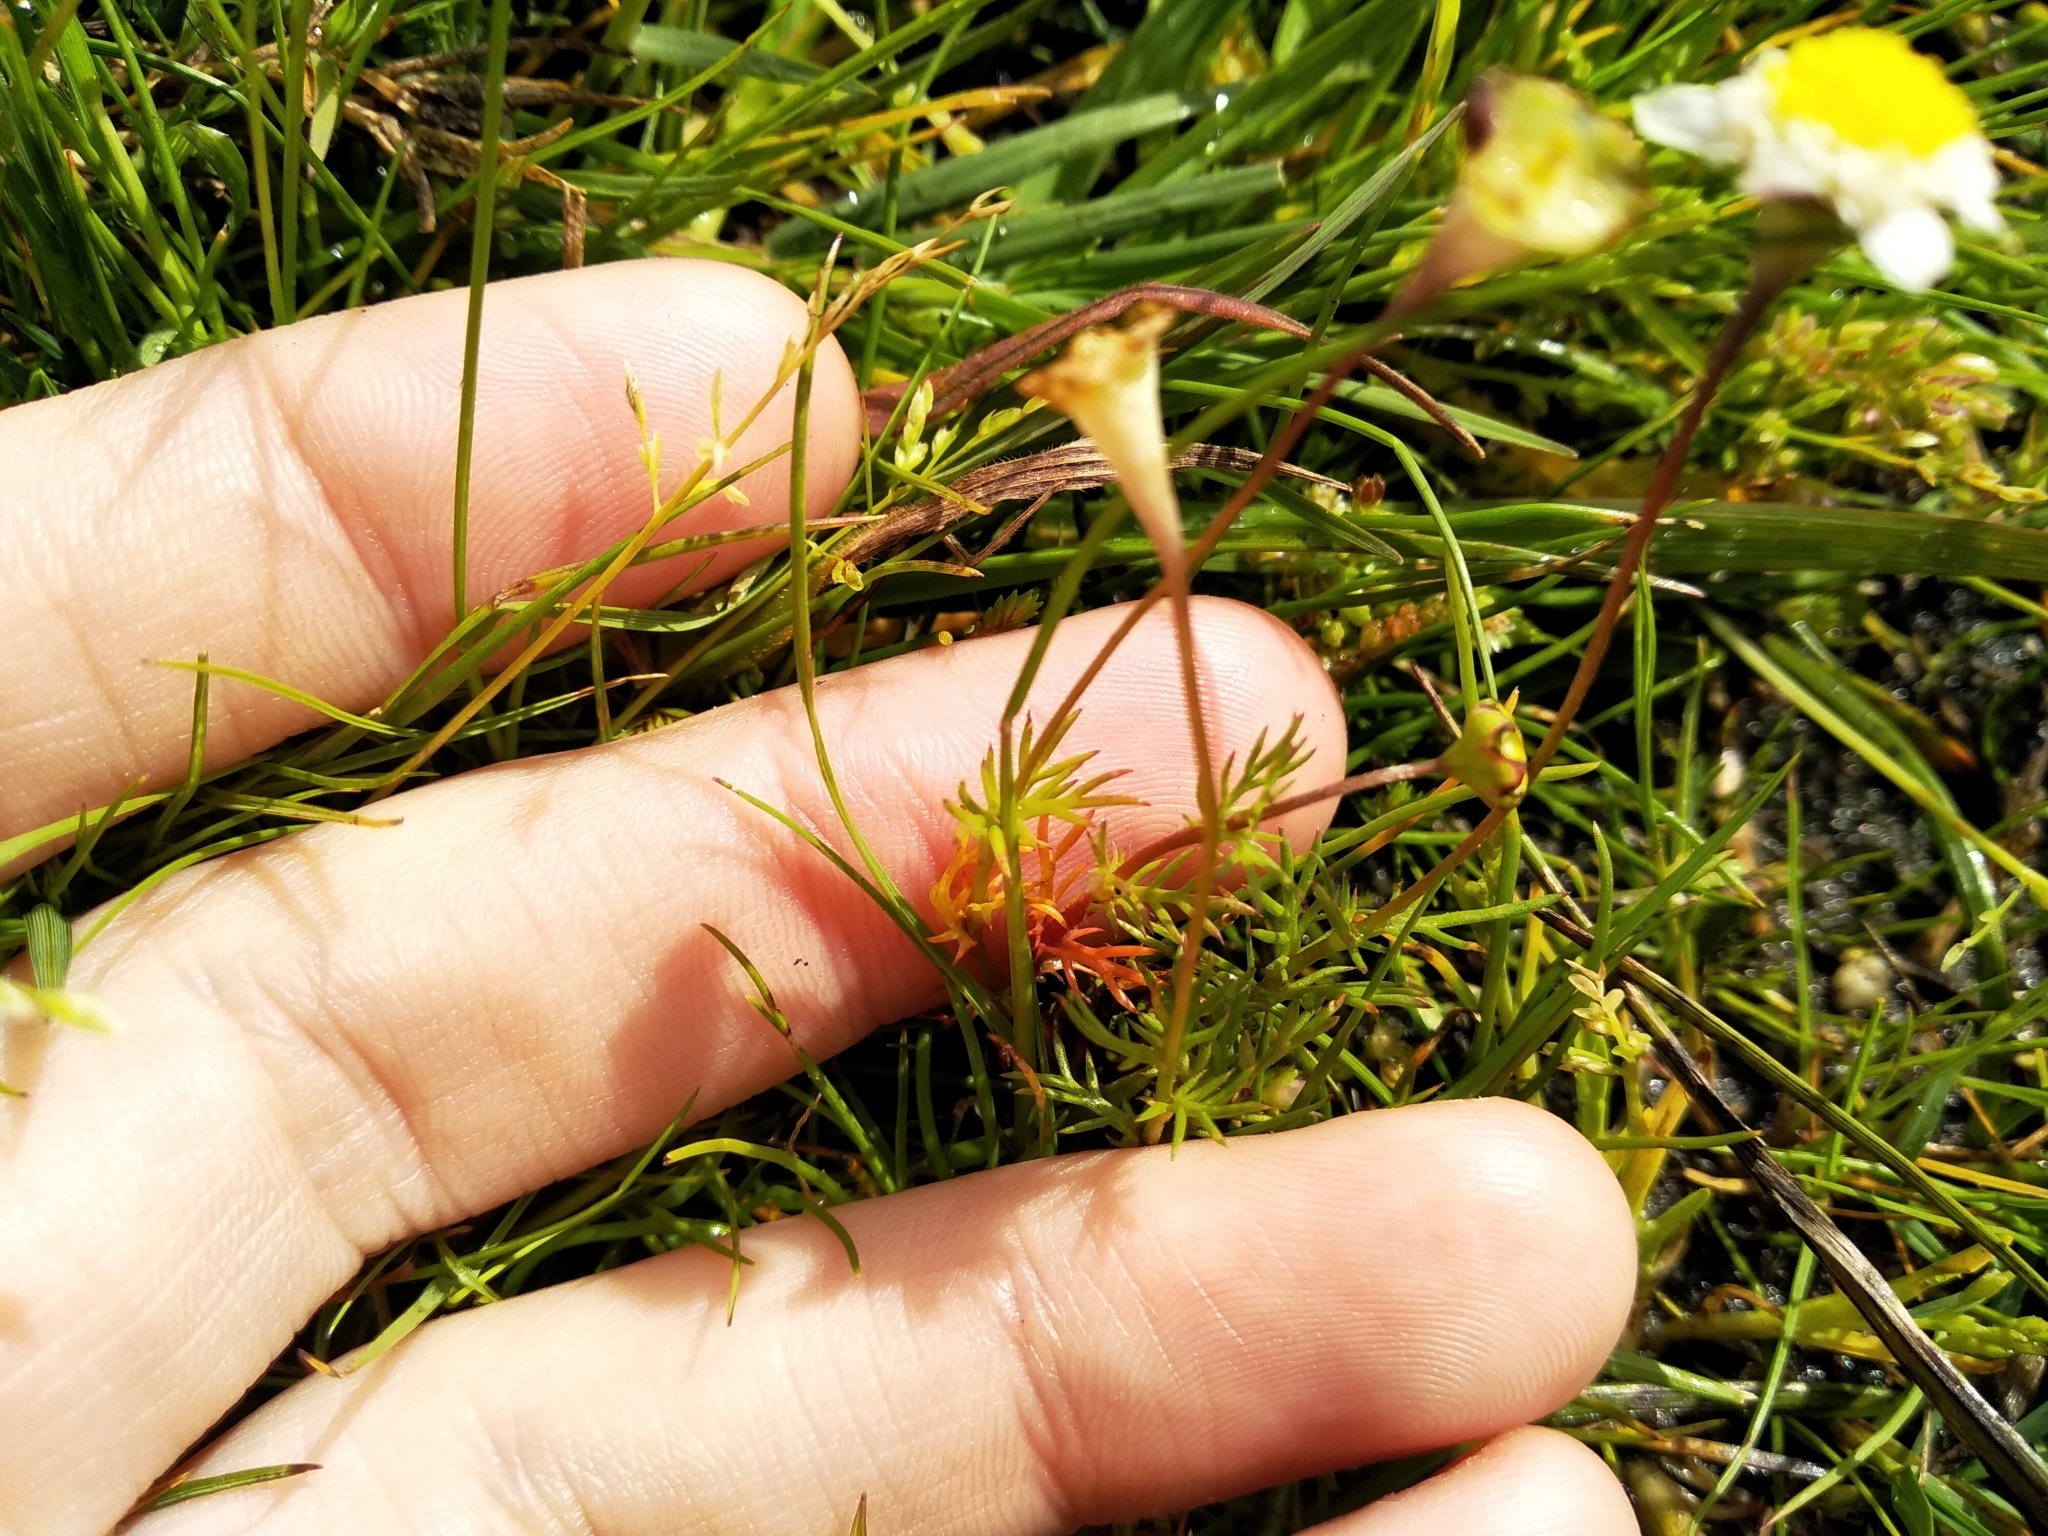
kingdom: Plantae
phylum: Tracheophyta
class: Magnoliopsida
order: Asterales
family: Asteraceae
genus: Cotula
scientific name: Cotula turbinata
